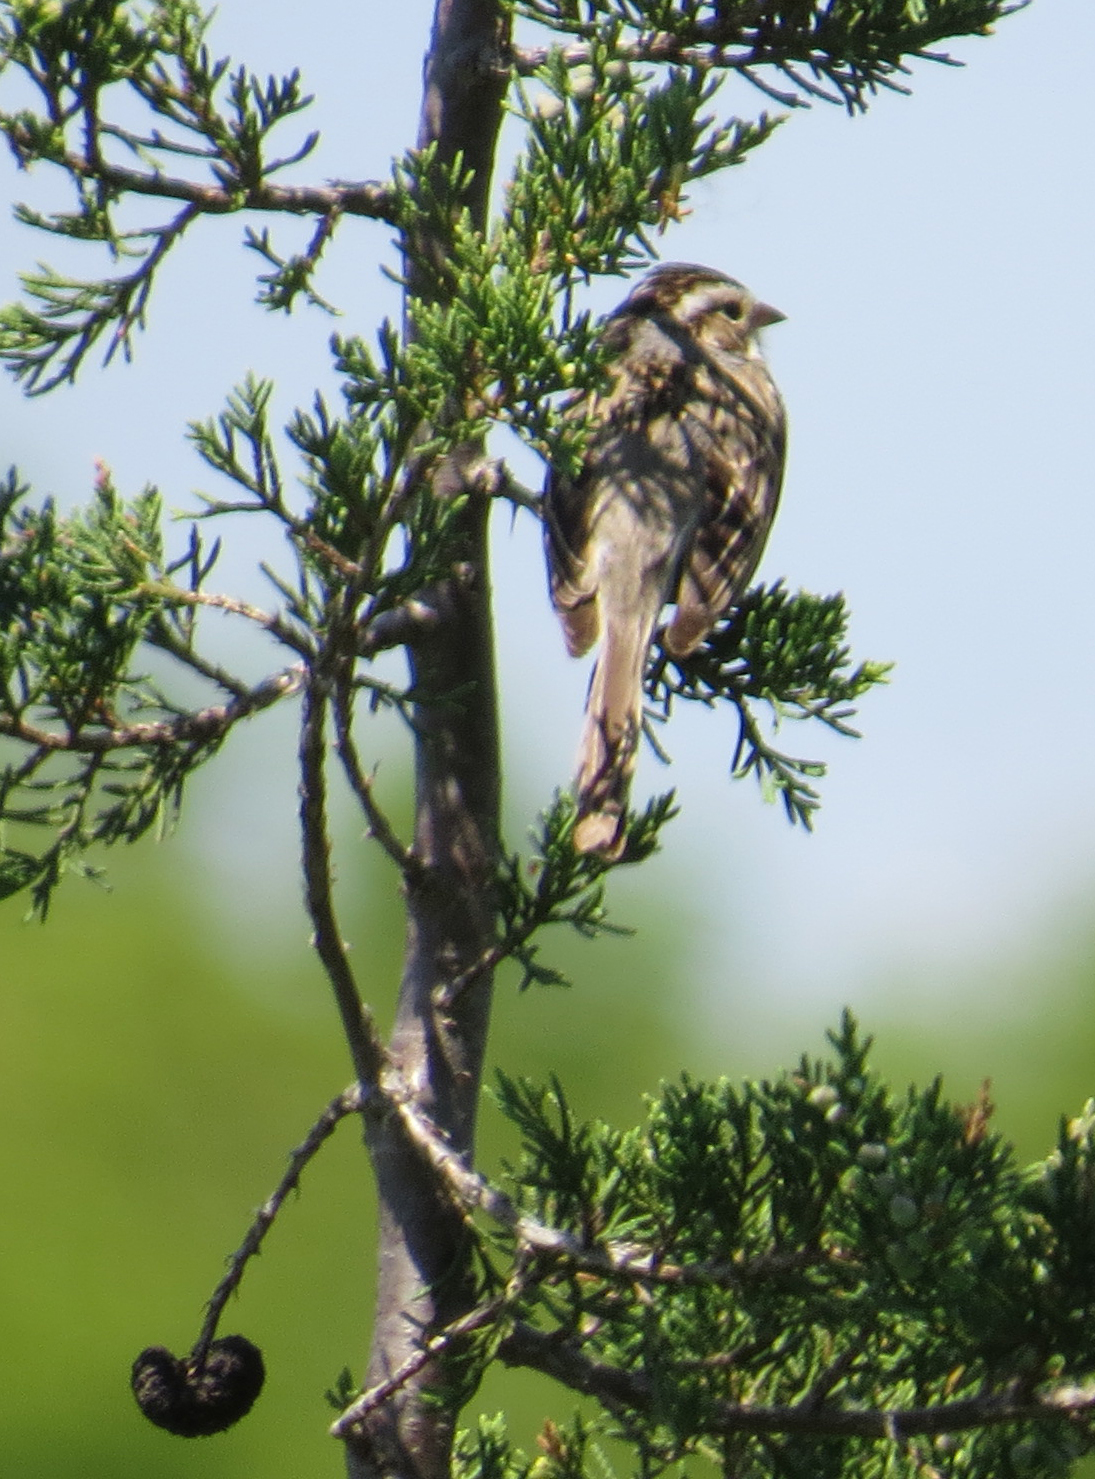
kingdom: Animalia
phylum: Chordata
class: Aves
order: Passeriformes
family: Passerellidae
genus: Spizella
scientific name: Spizella pallida
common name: Clay-colored sparrow
